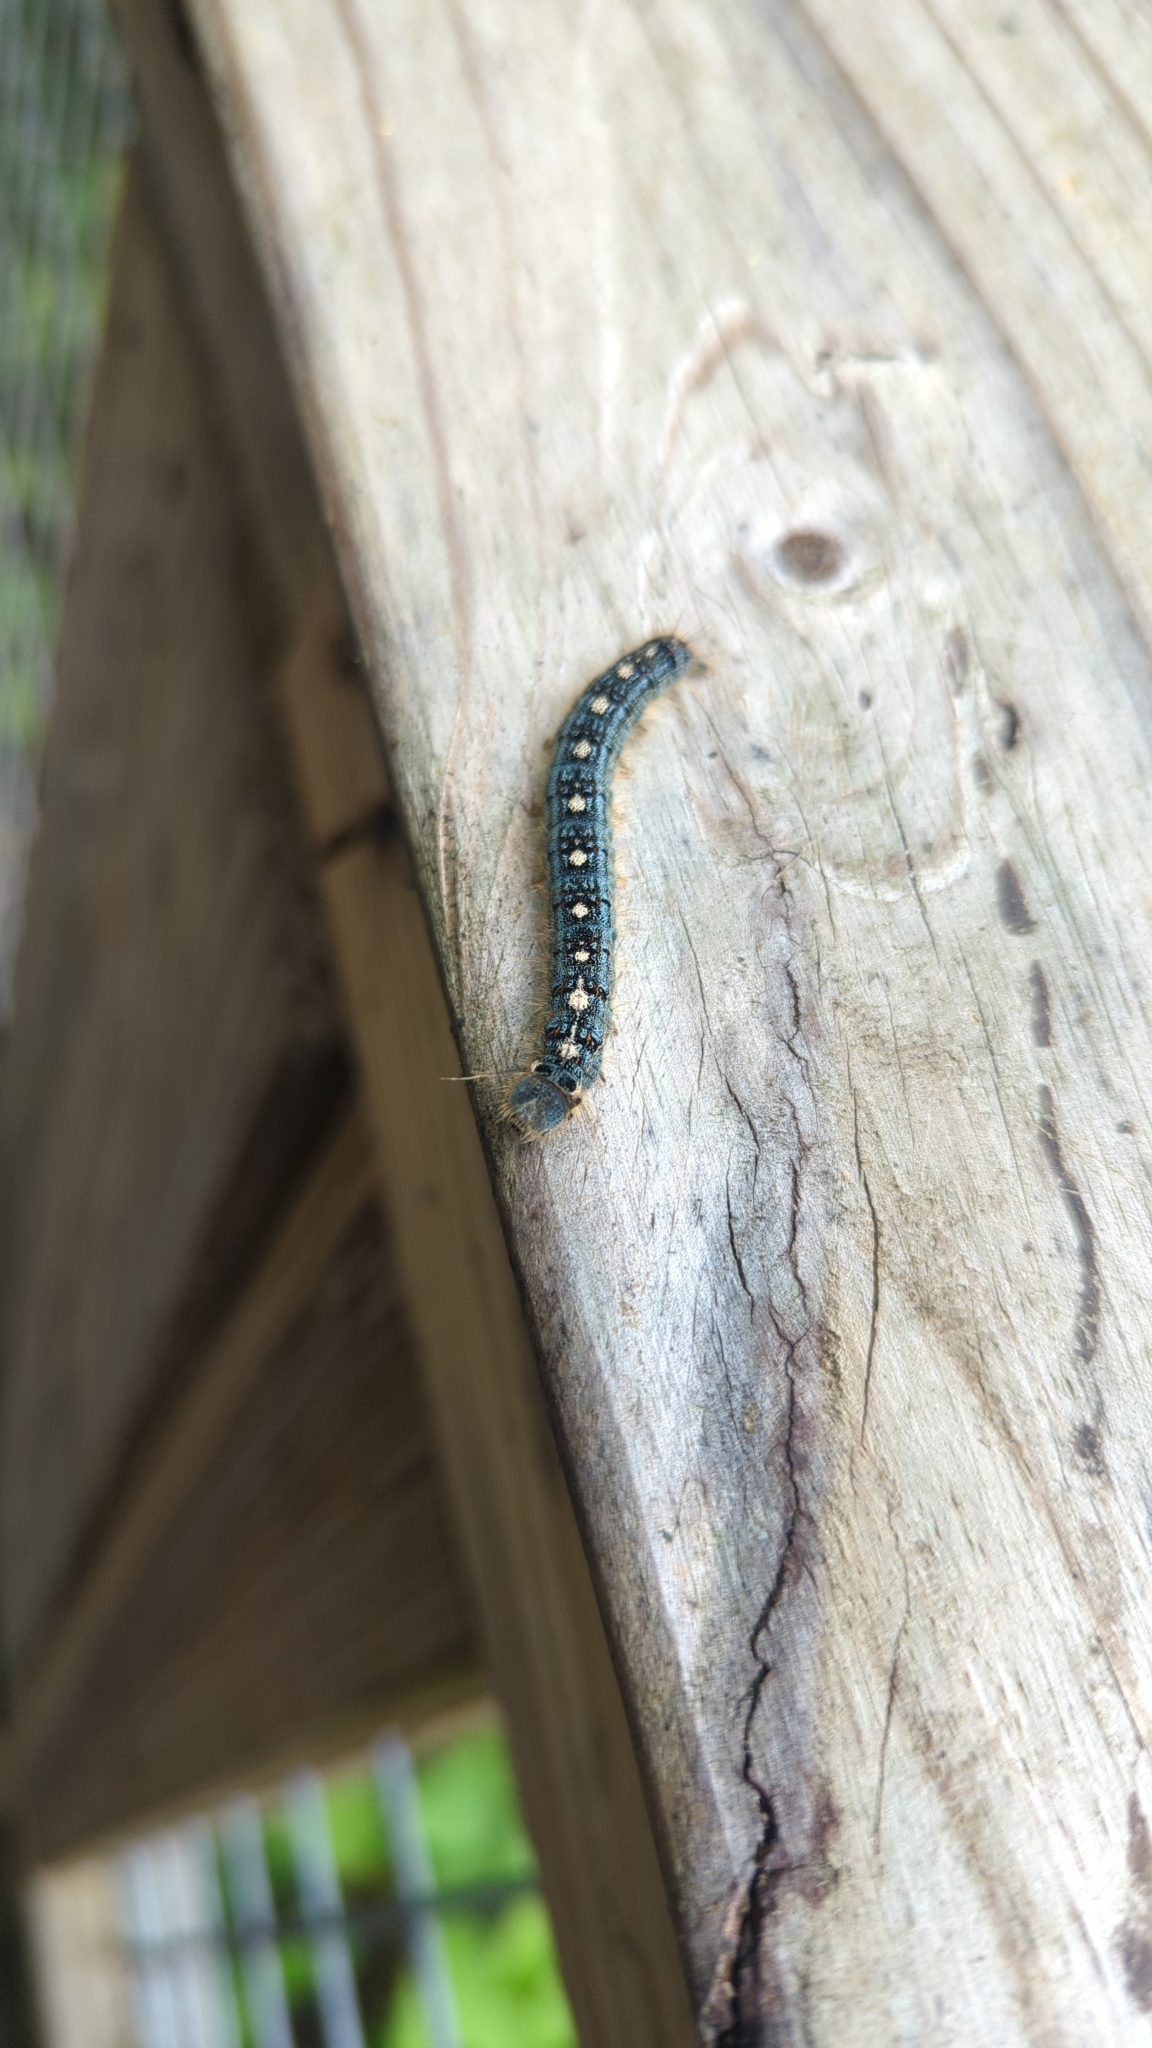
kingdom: Animalia
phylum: Arthropoda
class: Insecta
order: Lepidoptera
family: Lasiocampidae
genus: Malacosoma
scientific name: Malacosoma disstria
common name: Forest tent caterpillar
